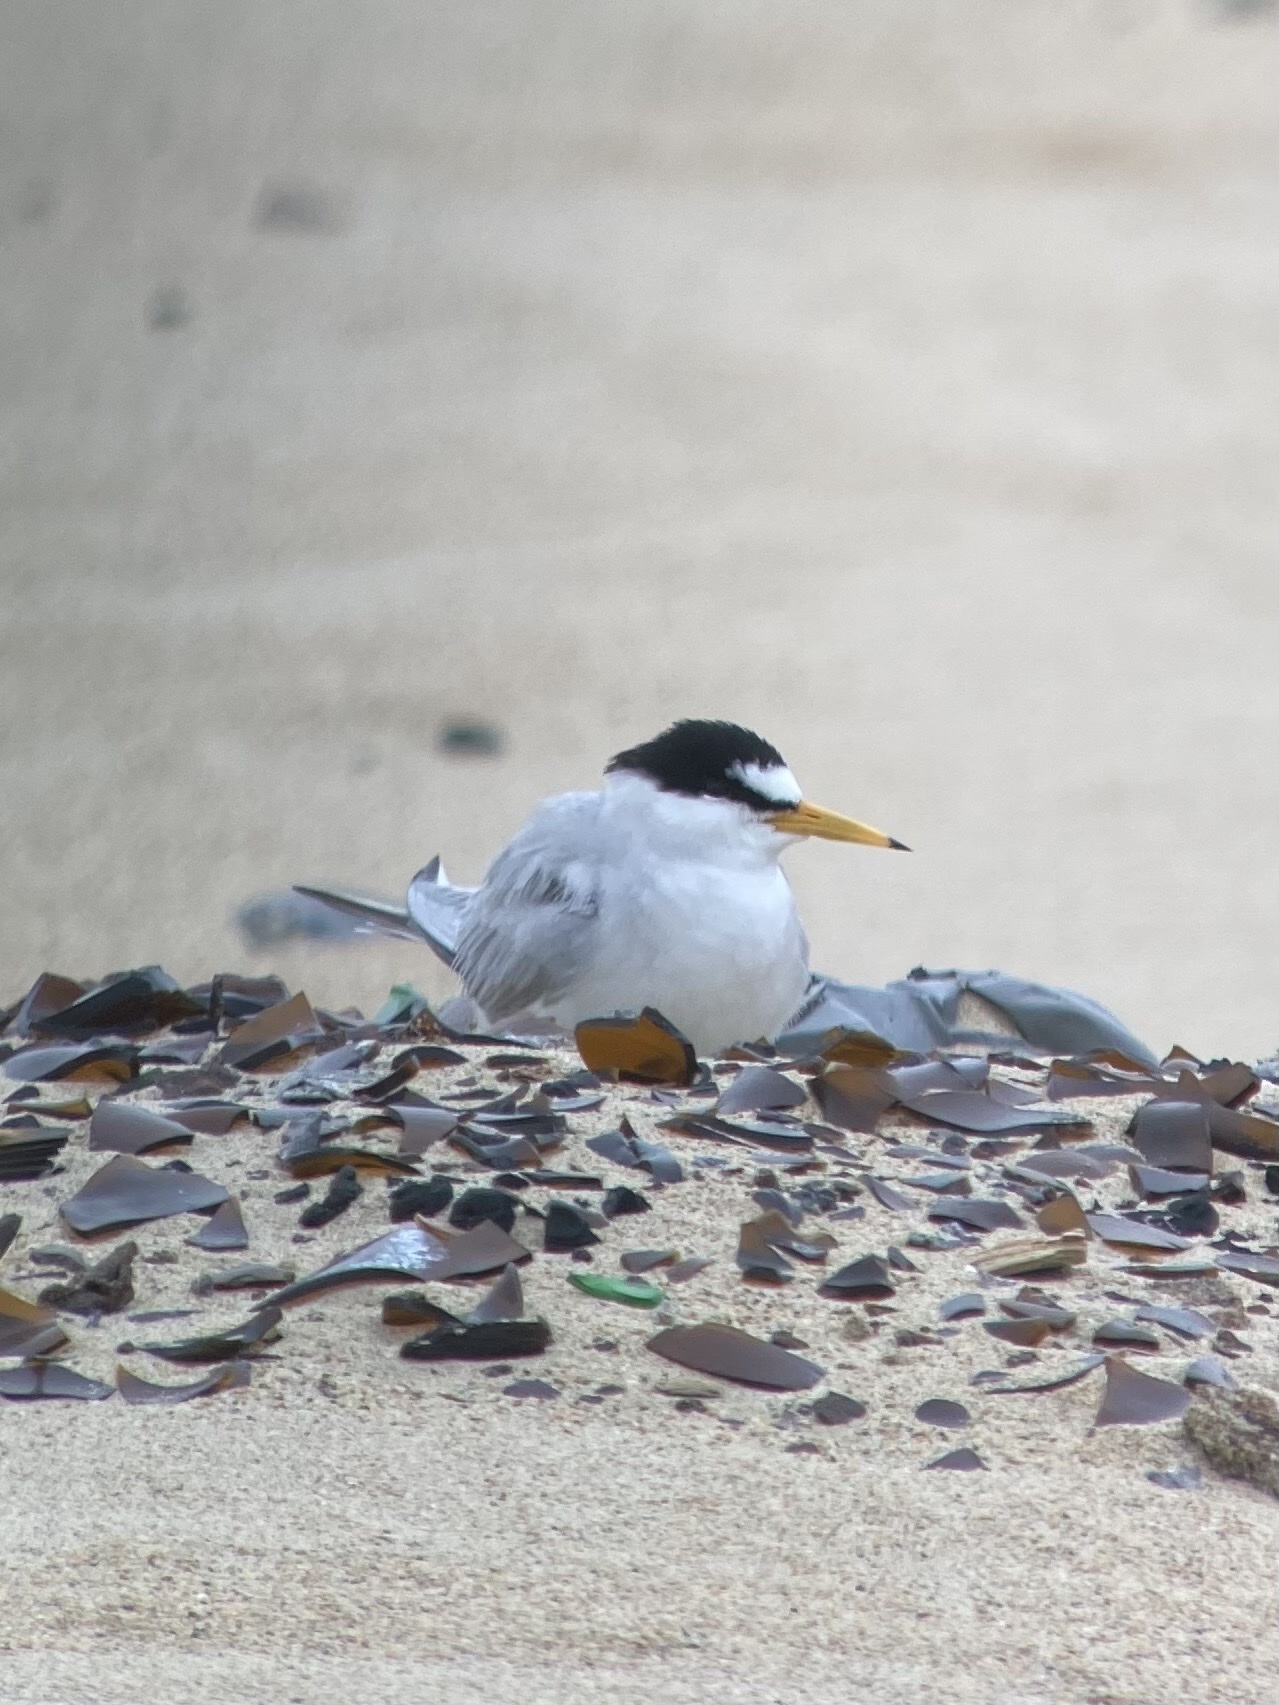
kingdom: Animalia
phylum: Chordata
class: Aves
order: Charadriiformes
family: Laridae
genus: Sternula
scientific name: Sternula antillarum
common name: Least tern
